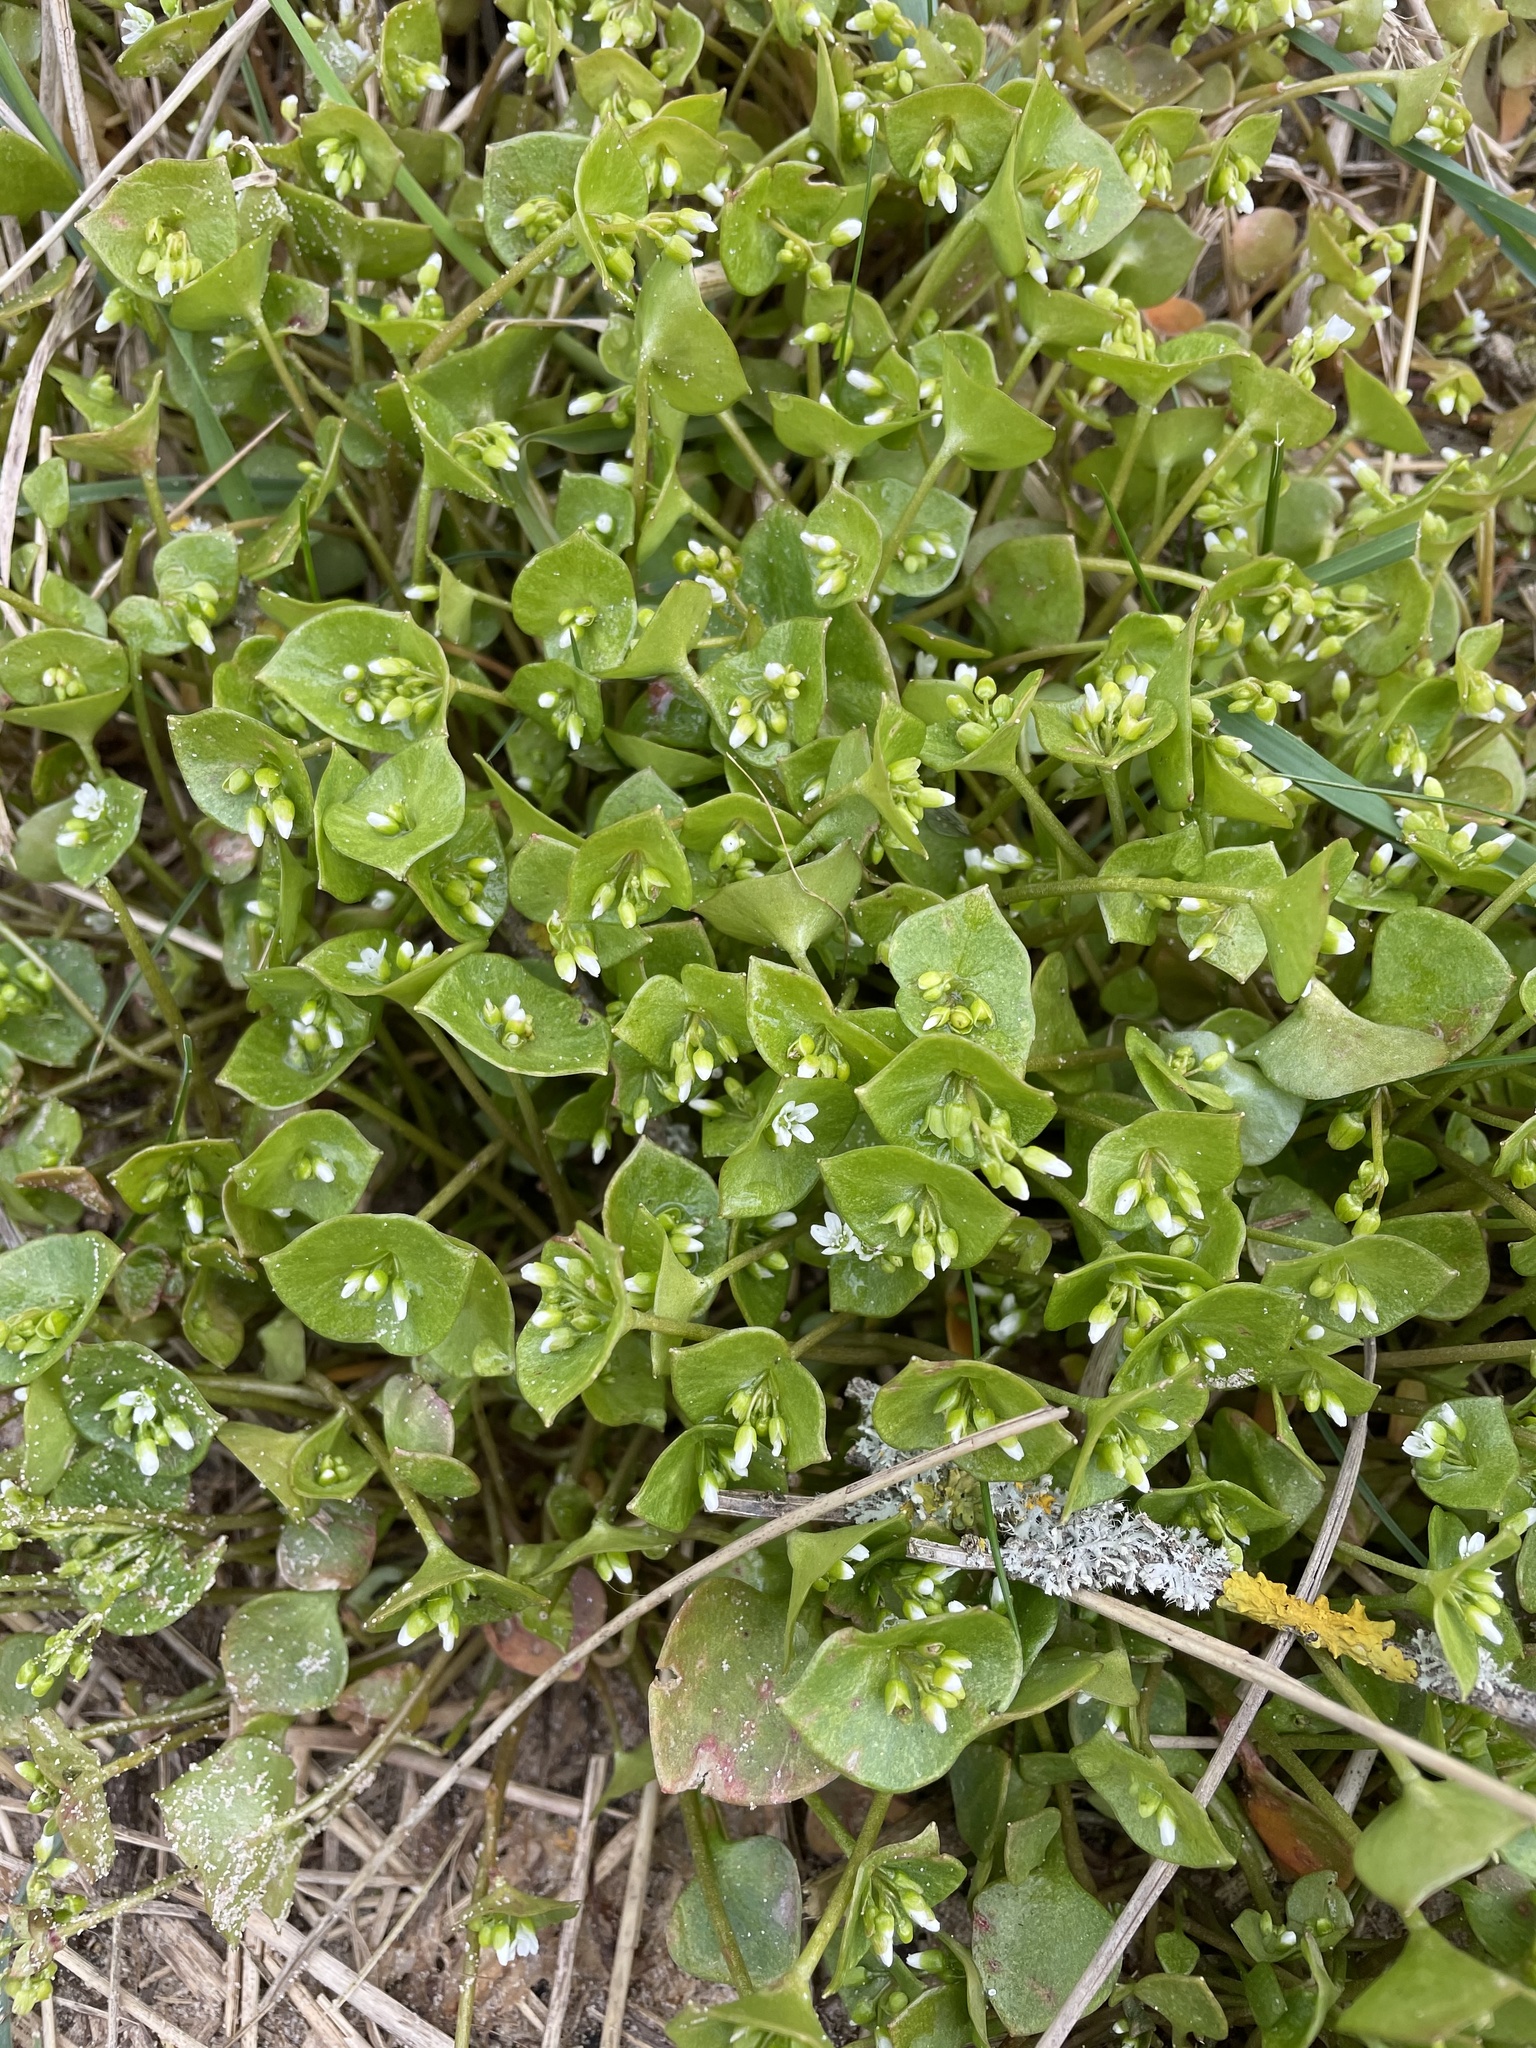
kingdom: Plantae
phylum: Tracheophyta
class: Magnoliopsida
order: Caryophyllales
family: Montiaceae
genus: Claytonia
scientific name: Claytonia perfoliata
